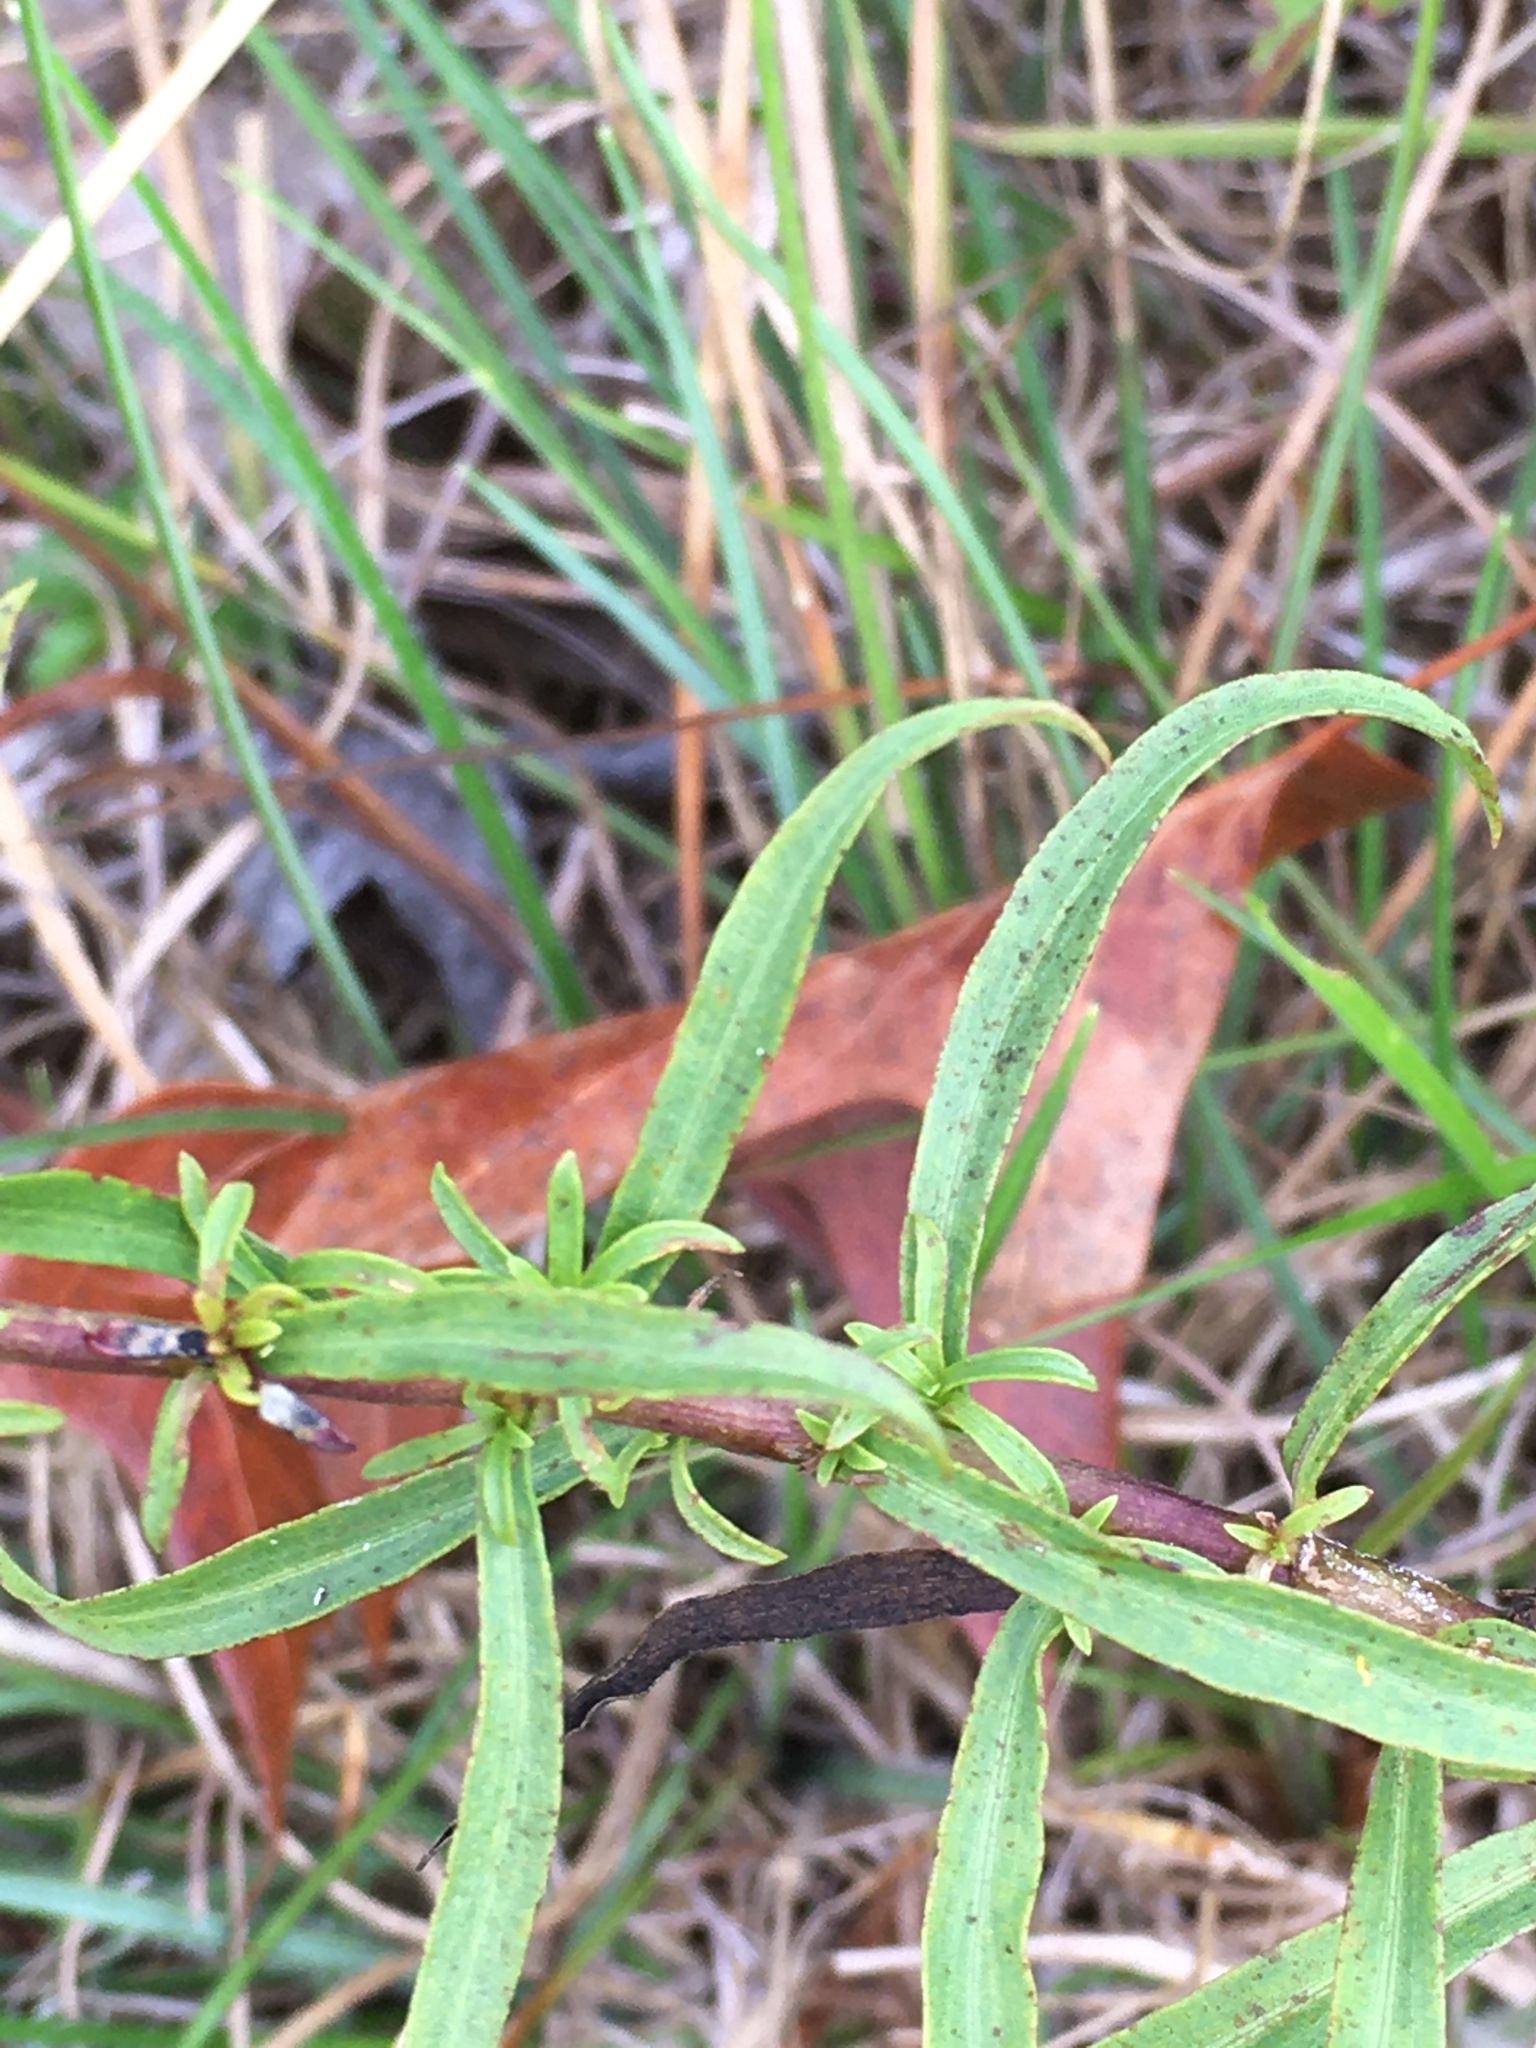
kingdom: Plantae
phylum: Tracheophyta
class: Magnoliopsida
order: Asterales
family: Asteraceae
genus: Solidago
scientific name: Solidago pinetorum
